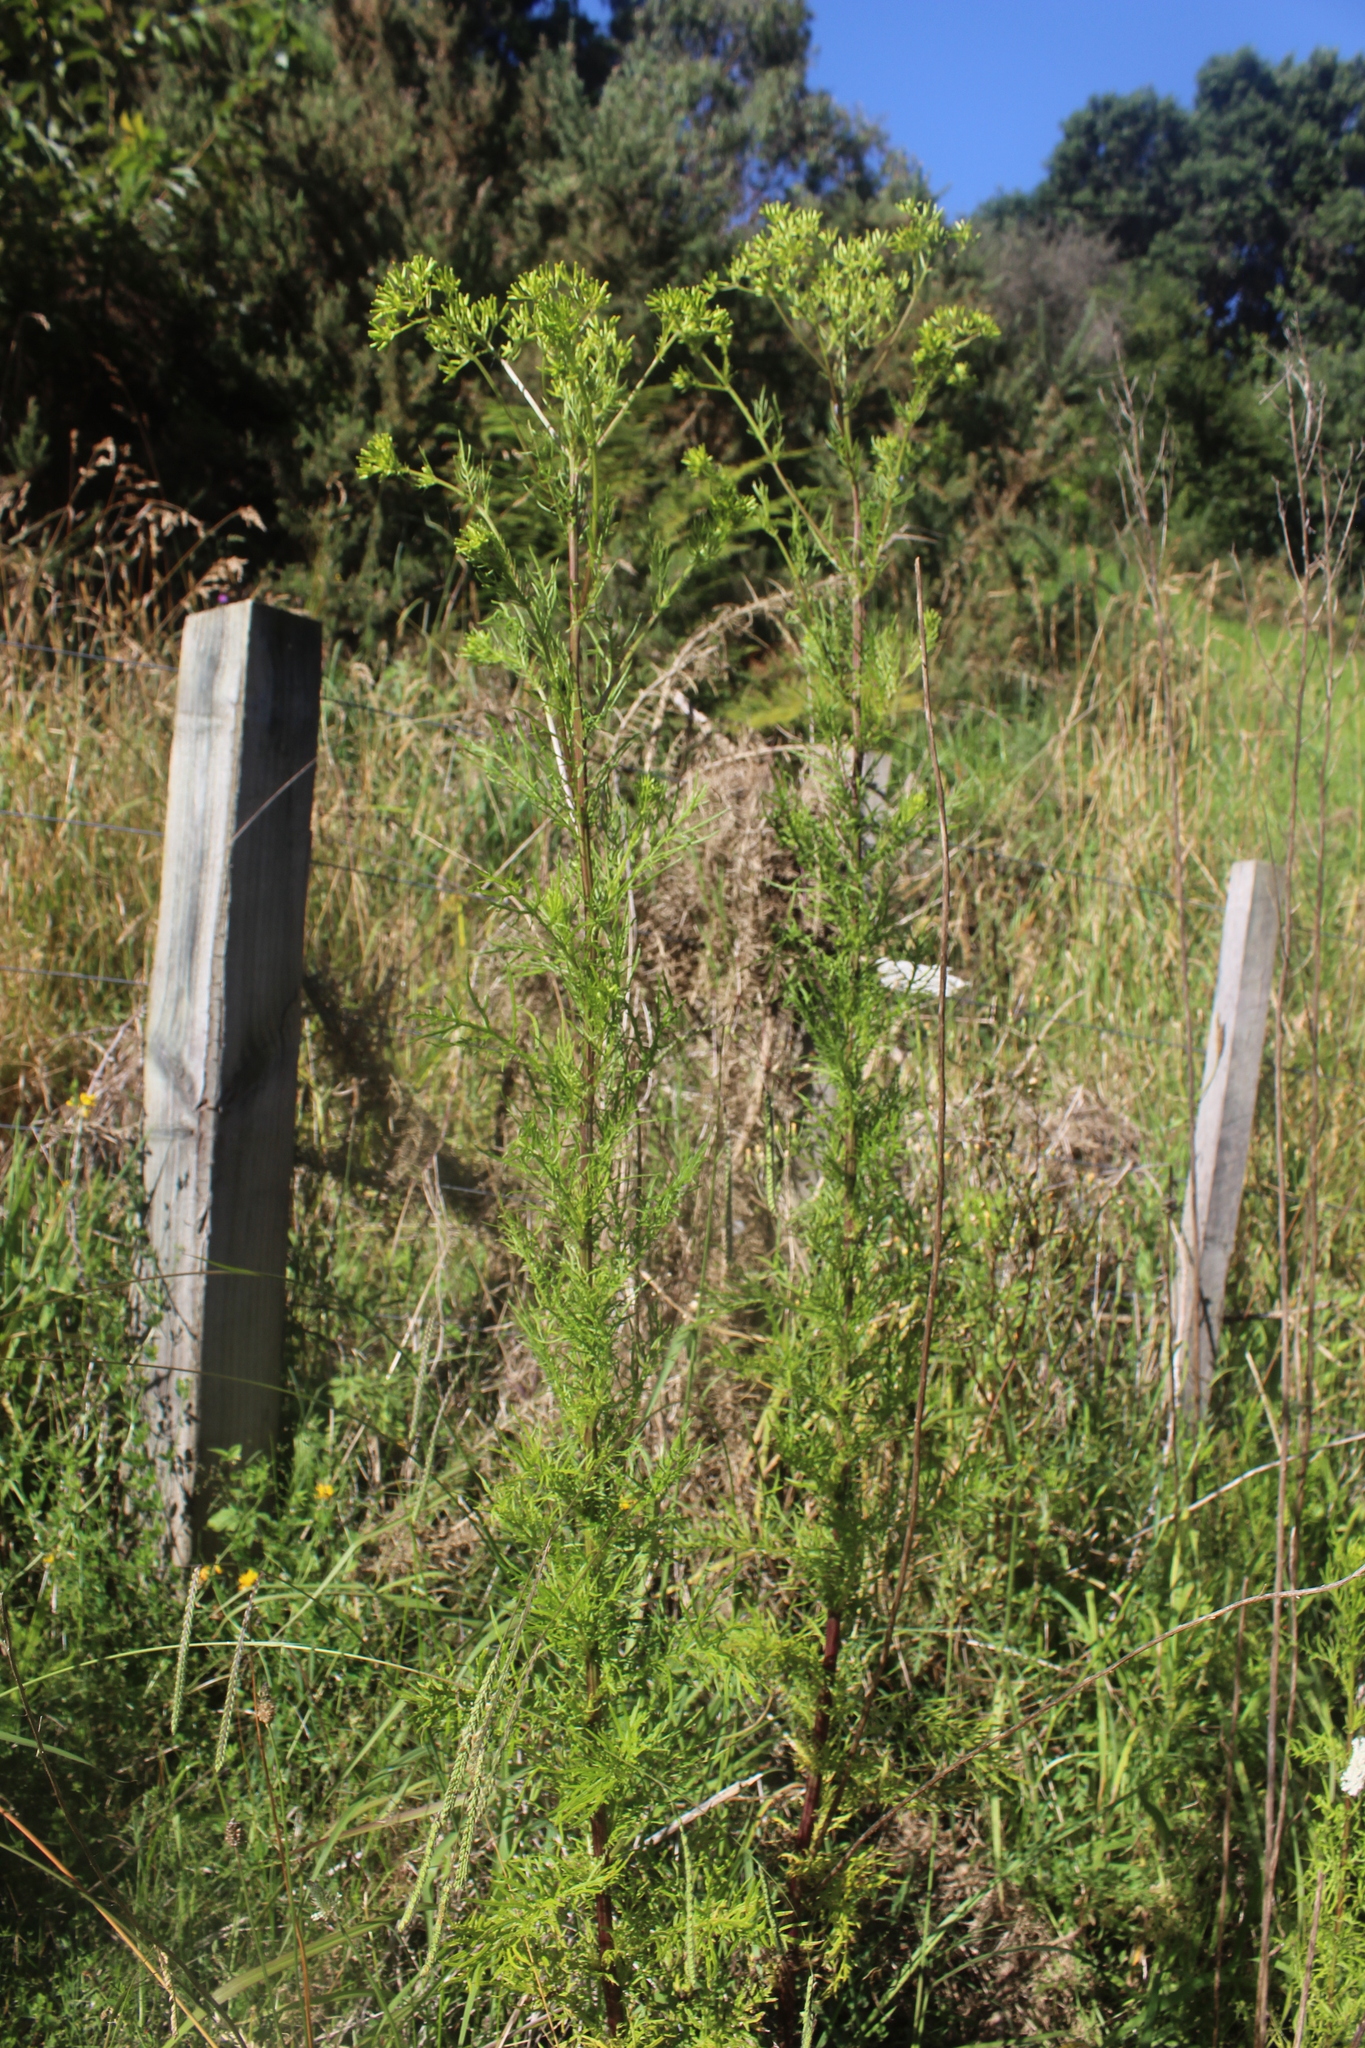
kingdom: Plantae
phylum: Tracheophyta
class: Magnoliopsida
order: Asterales
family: Asteraceae
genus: Senecio
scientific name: Senecio bipinnatisectus
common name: Australian fireweed
